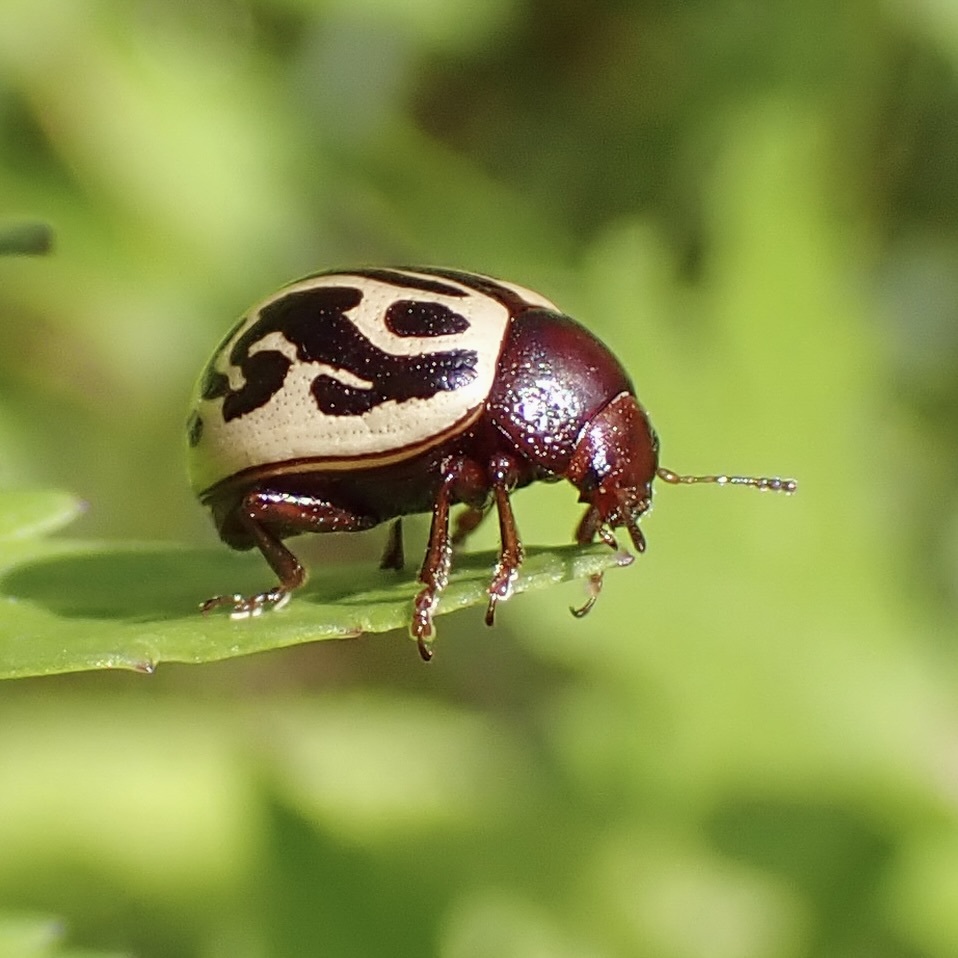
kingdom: Animalia
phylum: Arthropoda
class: Insecta
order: Coleoptera
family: Chrysomelidae
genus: Calligrapha
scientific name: Calligrapha
